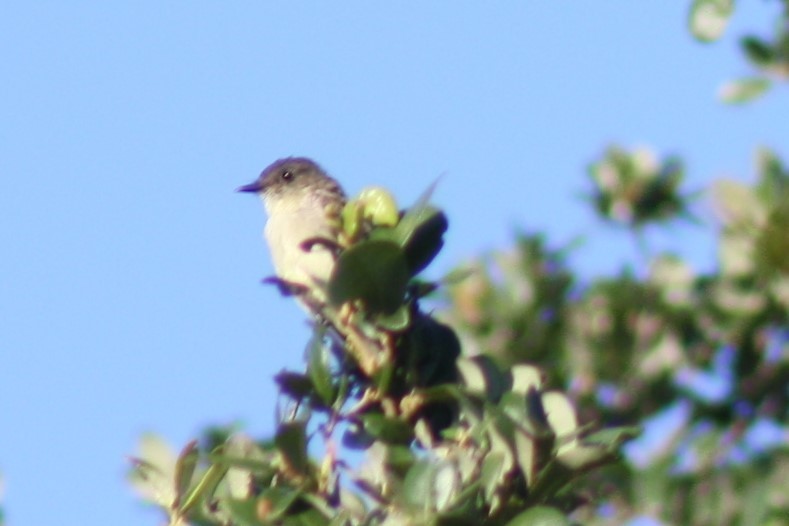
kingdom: Animalia
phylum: Chordata
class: Aves
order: Passeriformes
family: Tyrannidae
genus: Sayornis
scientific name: Sayornis phoebe
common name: Eastern phoebe
